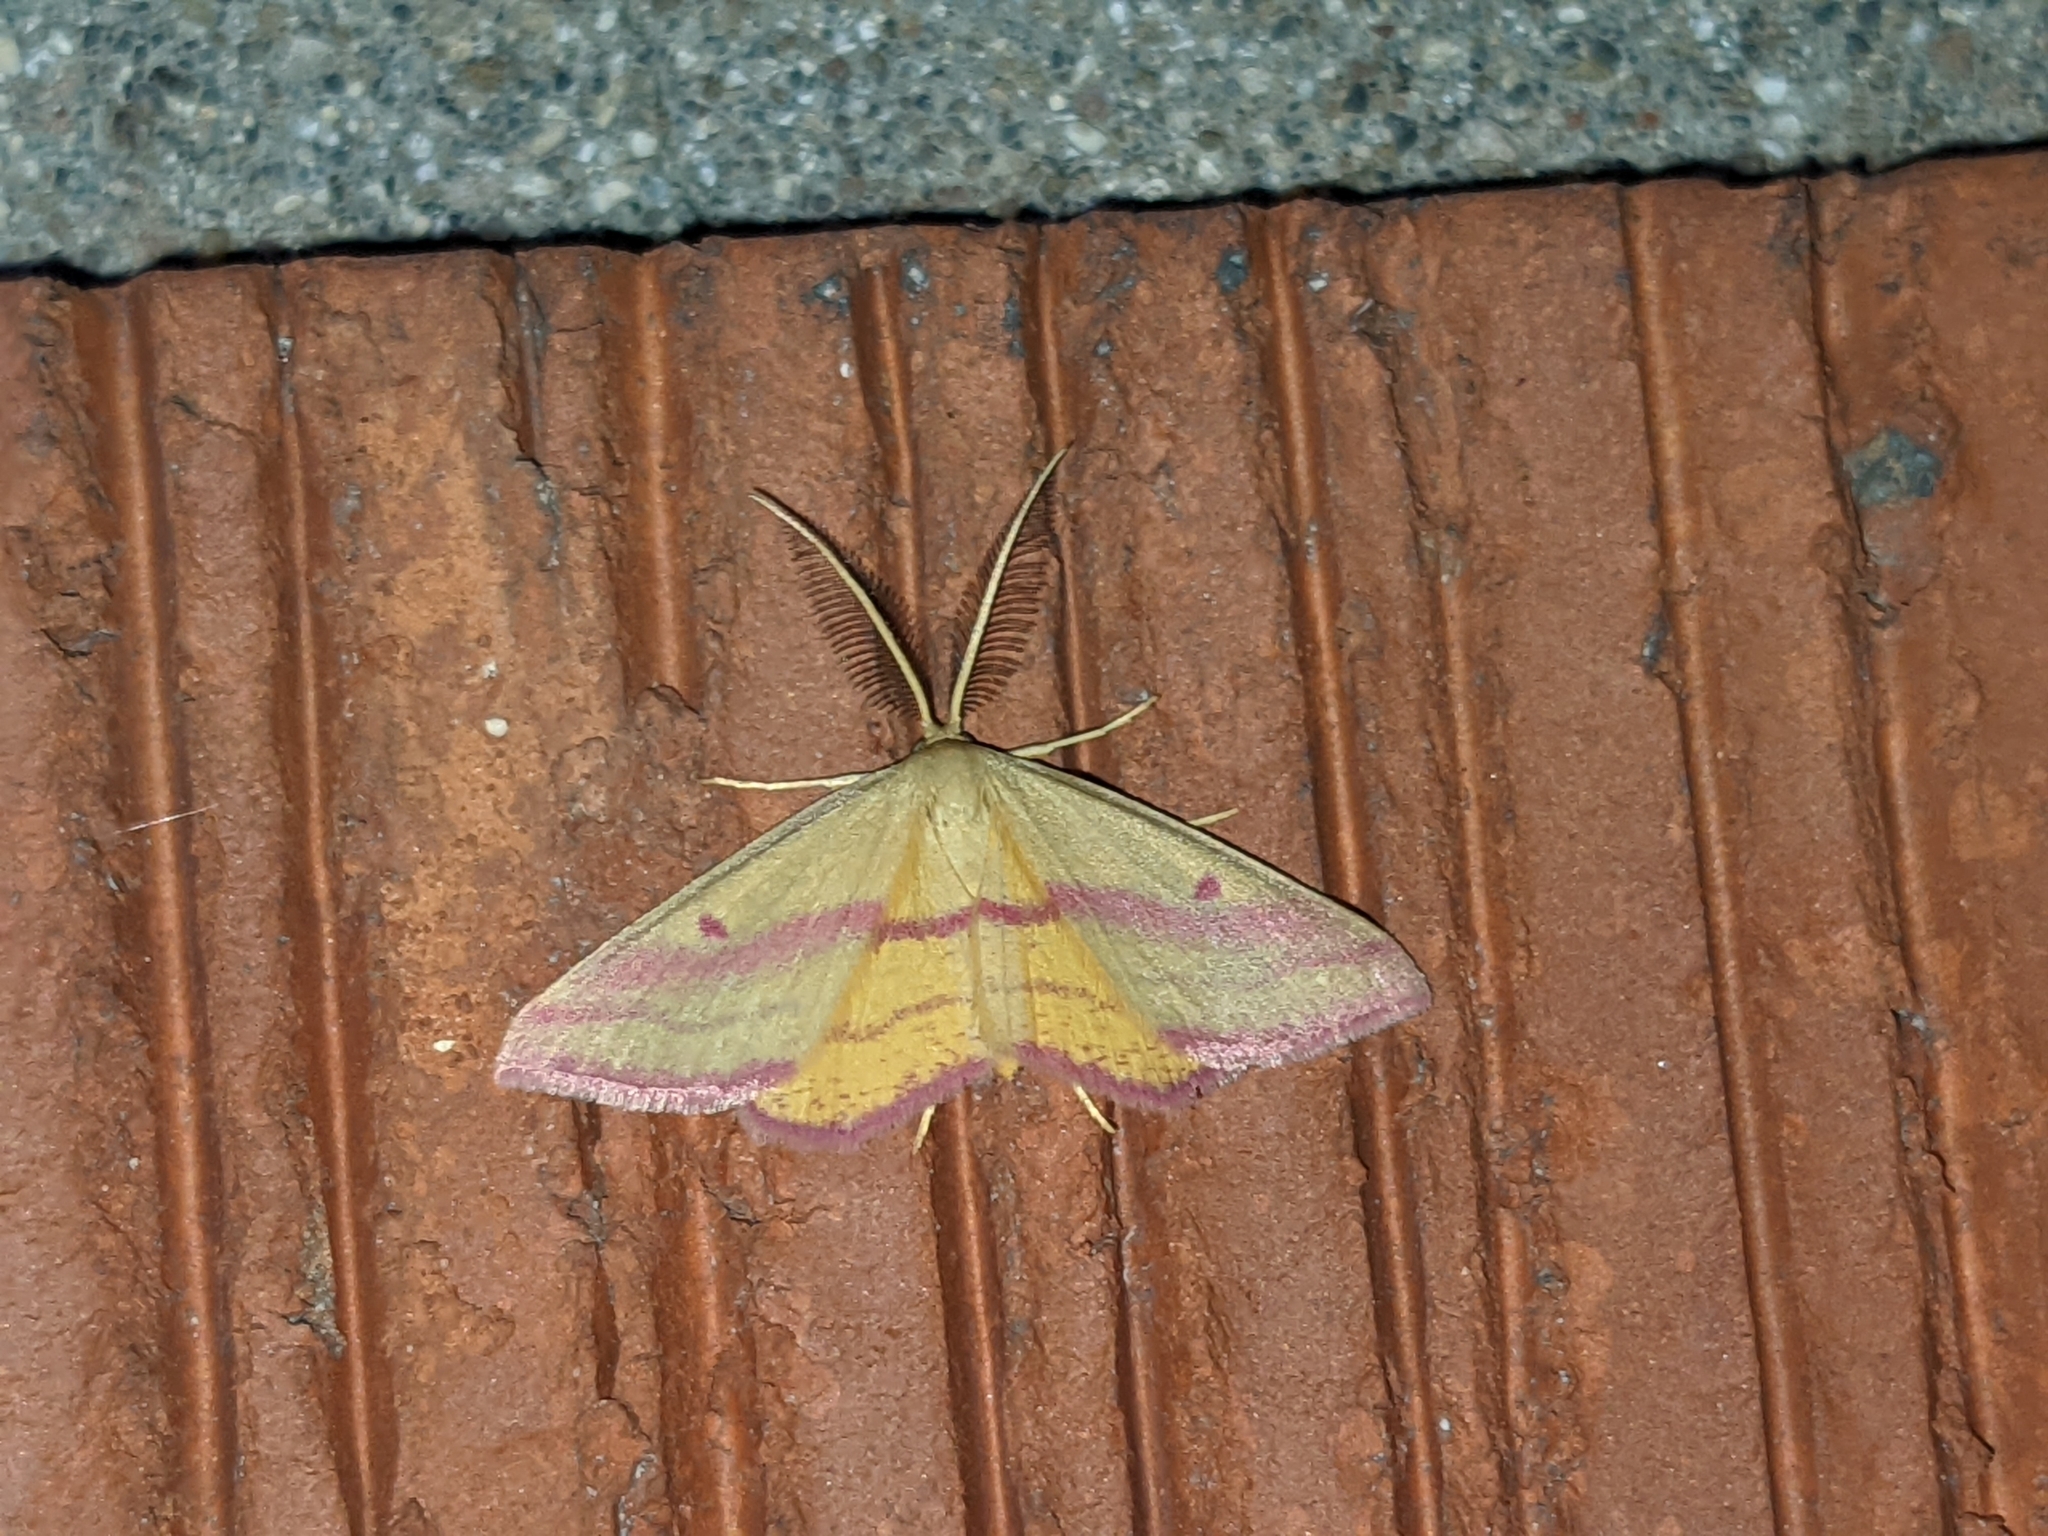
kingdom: Animalia
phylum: Arthropoda
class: Insecta
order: Lepidoptera
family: Geometridae
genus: Haematopis
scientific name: Haematopis grataria
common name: Chickweed geometer
